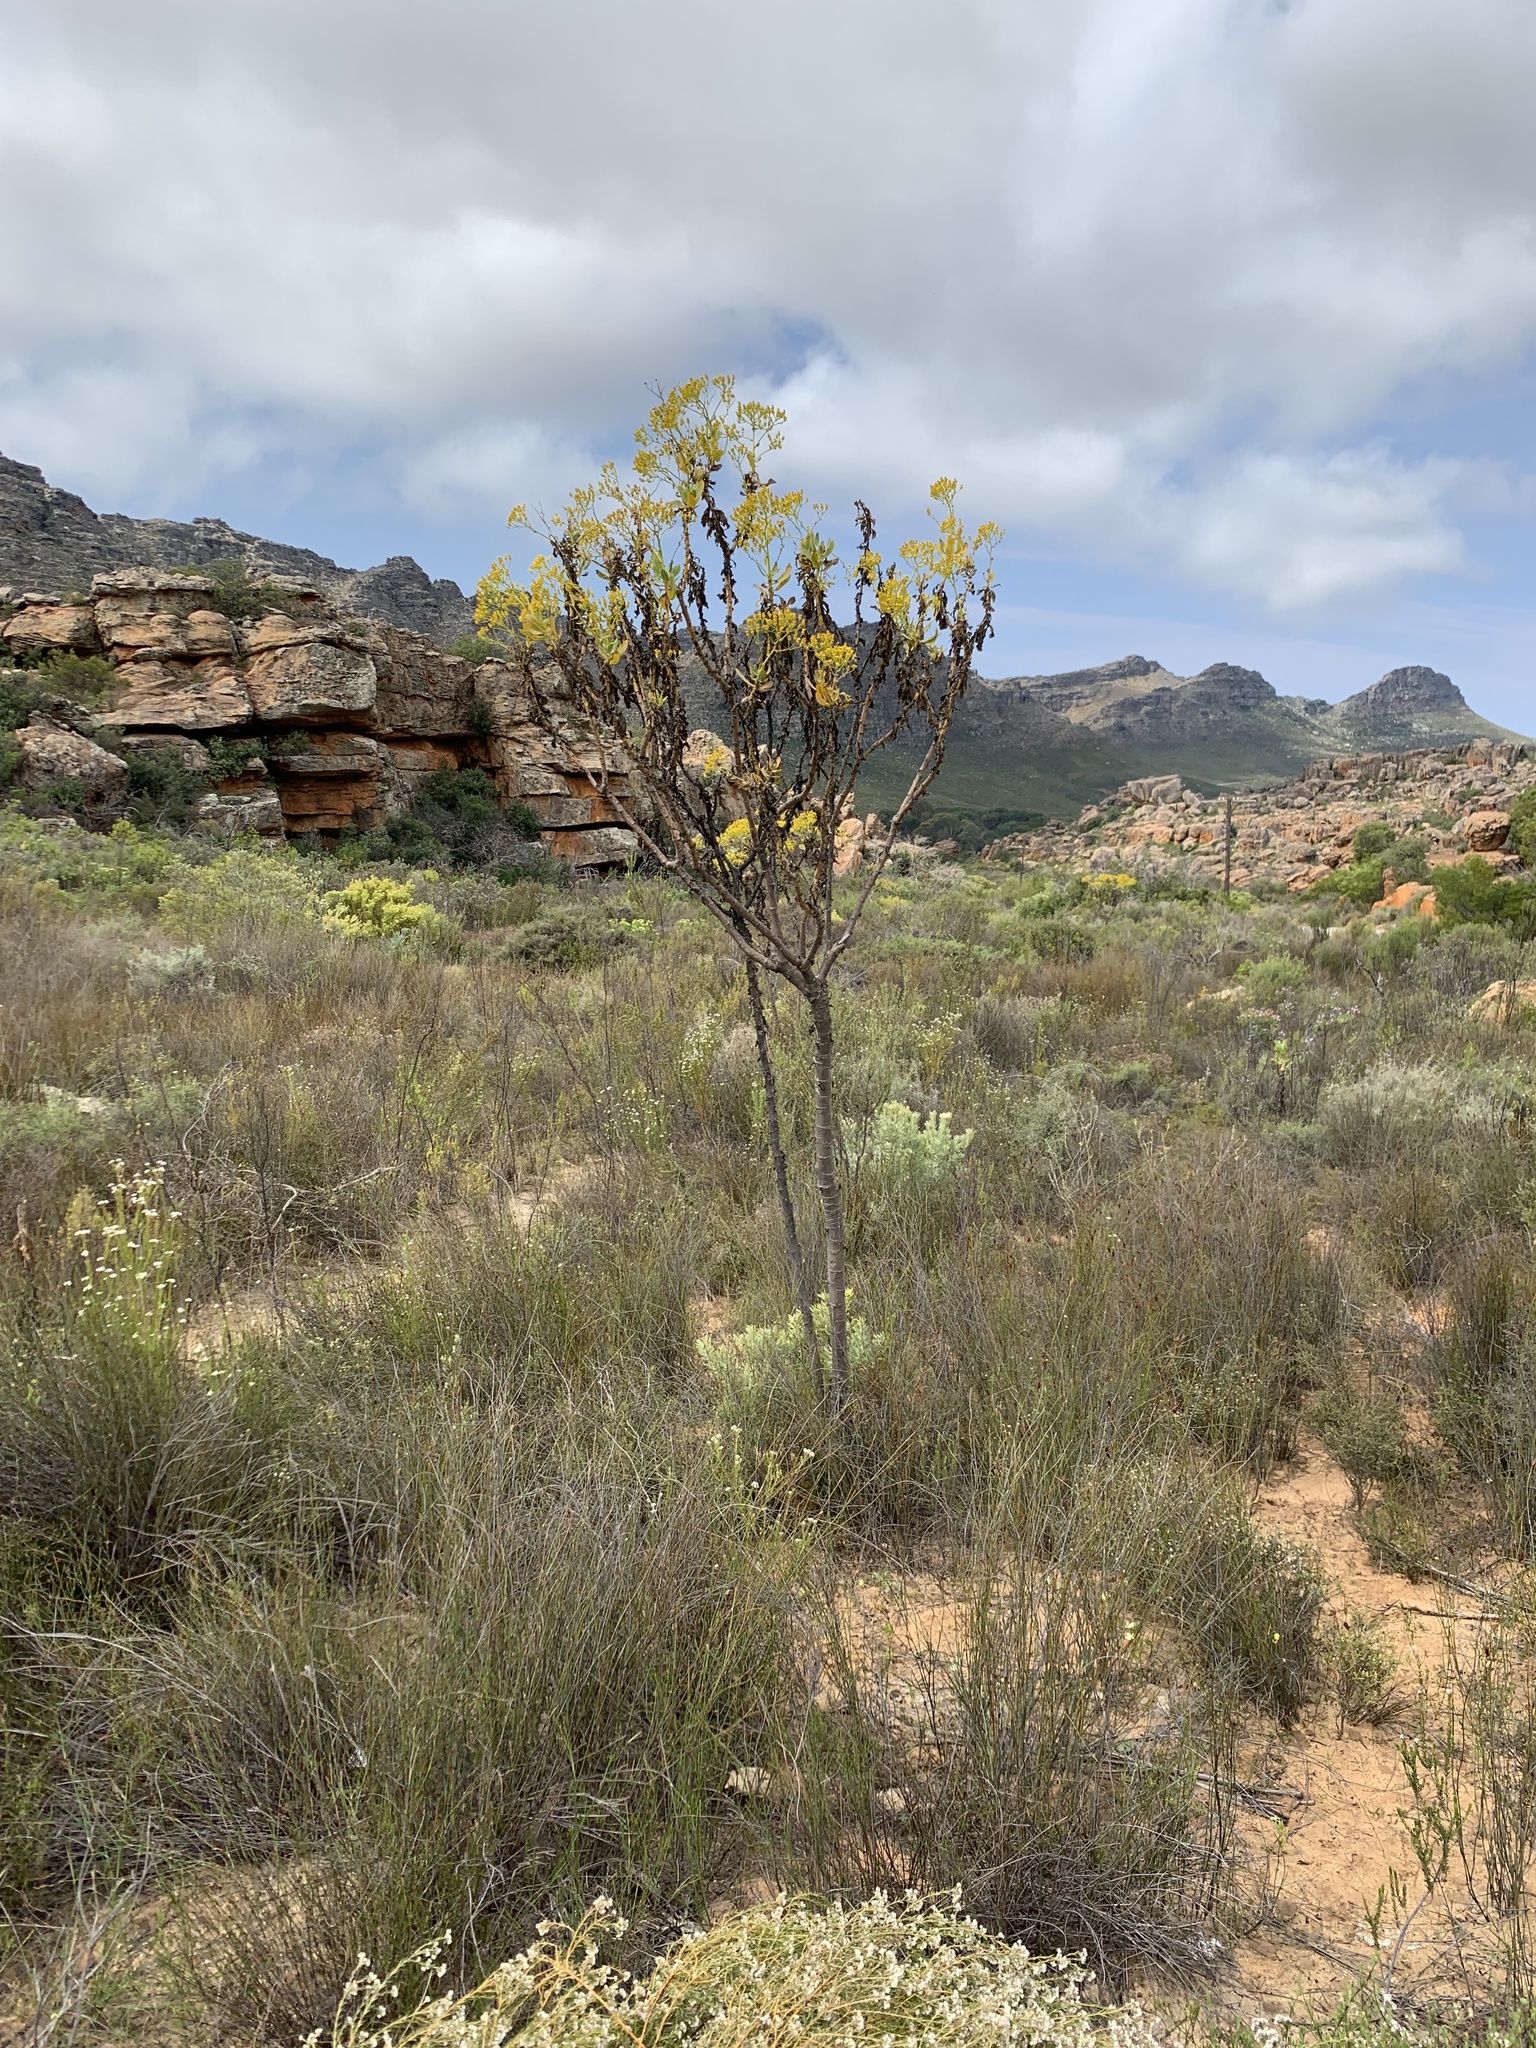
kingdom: Plantae
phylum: Tracheophyta
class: Magnoliopsida
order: Asterales
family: Asteraceae
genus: Othonna
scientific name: Othonna parviflora
